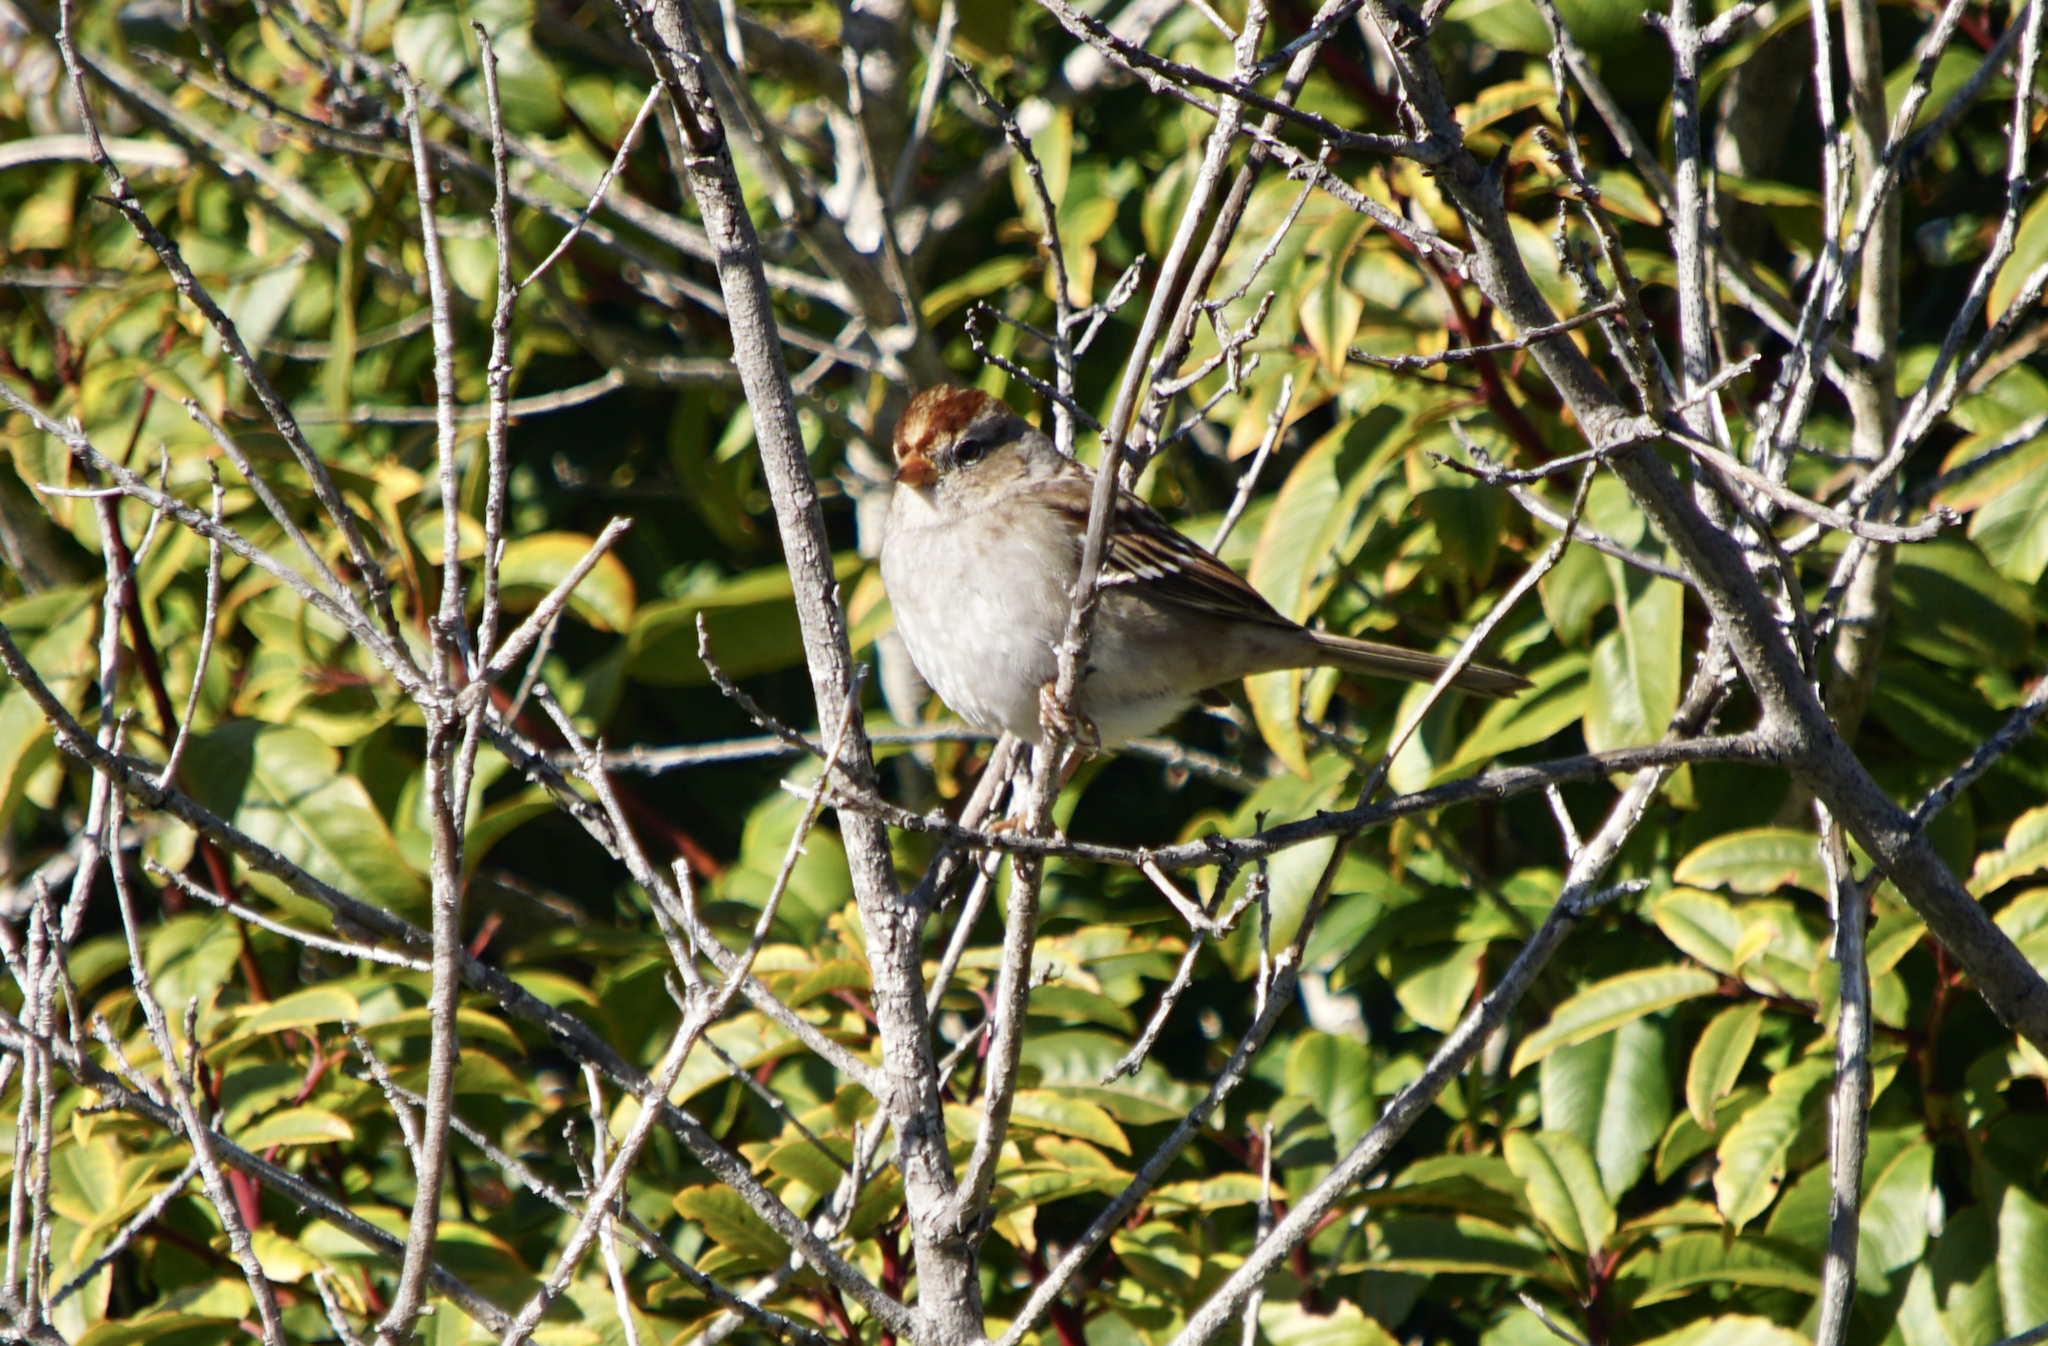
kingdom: Animalia
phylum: Chordata
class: Aves
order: Passeriformes
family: Passerellidae
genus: Zonotrichia
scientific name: Zonotrichia leucophrys
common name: White-crowned sparrow
